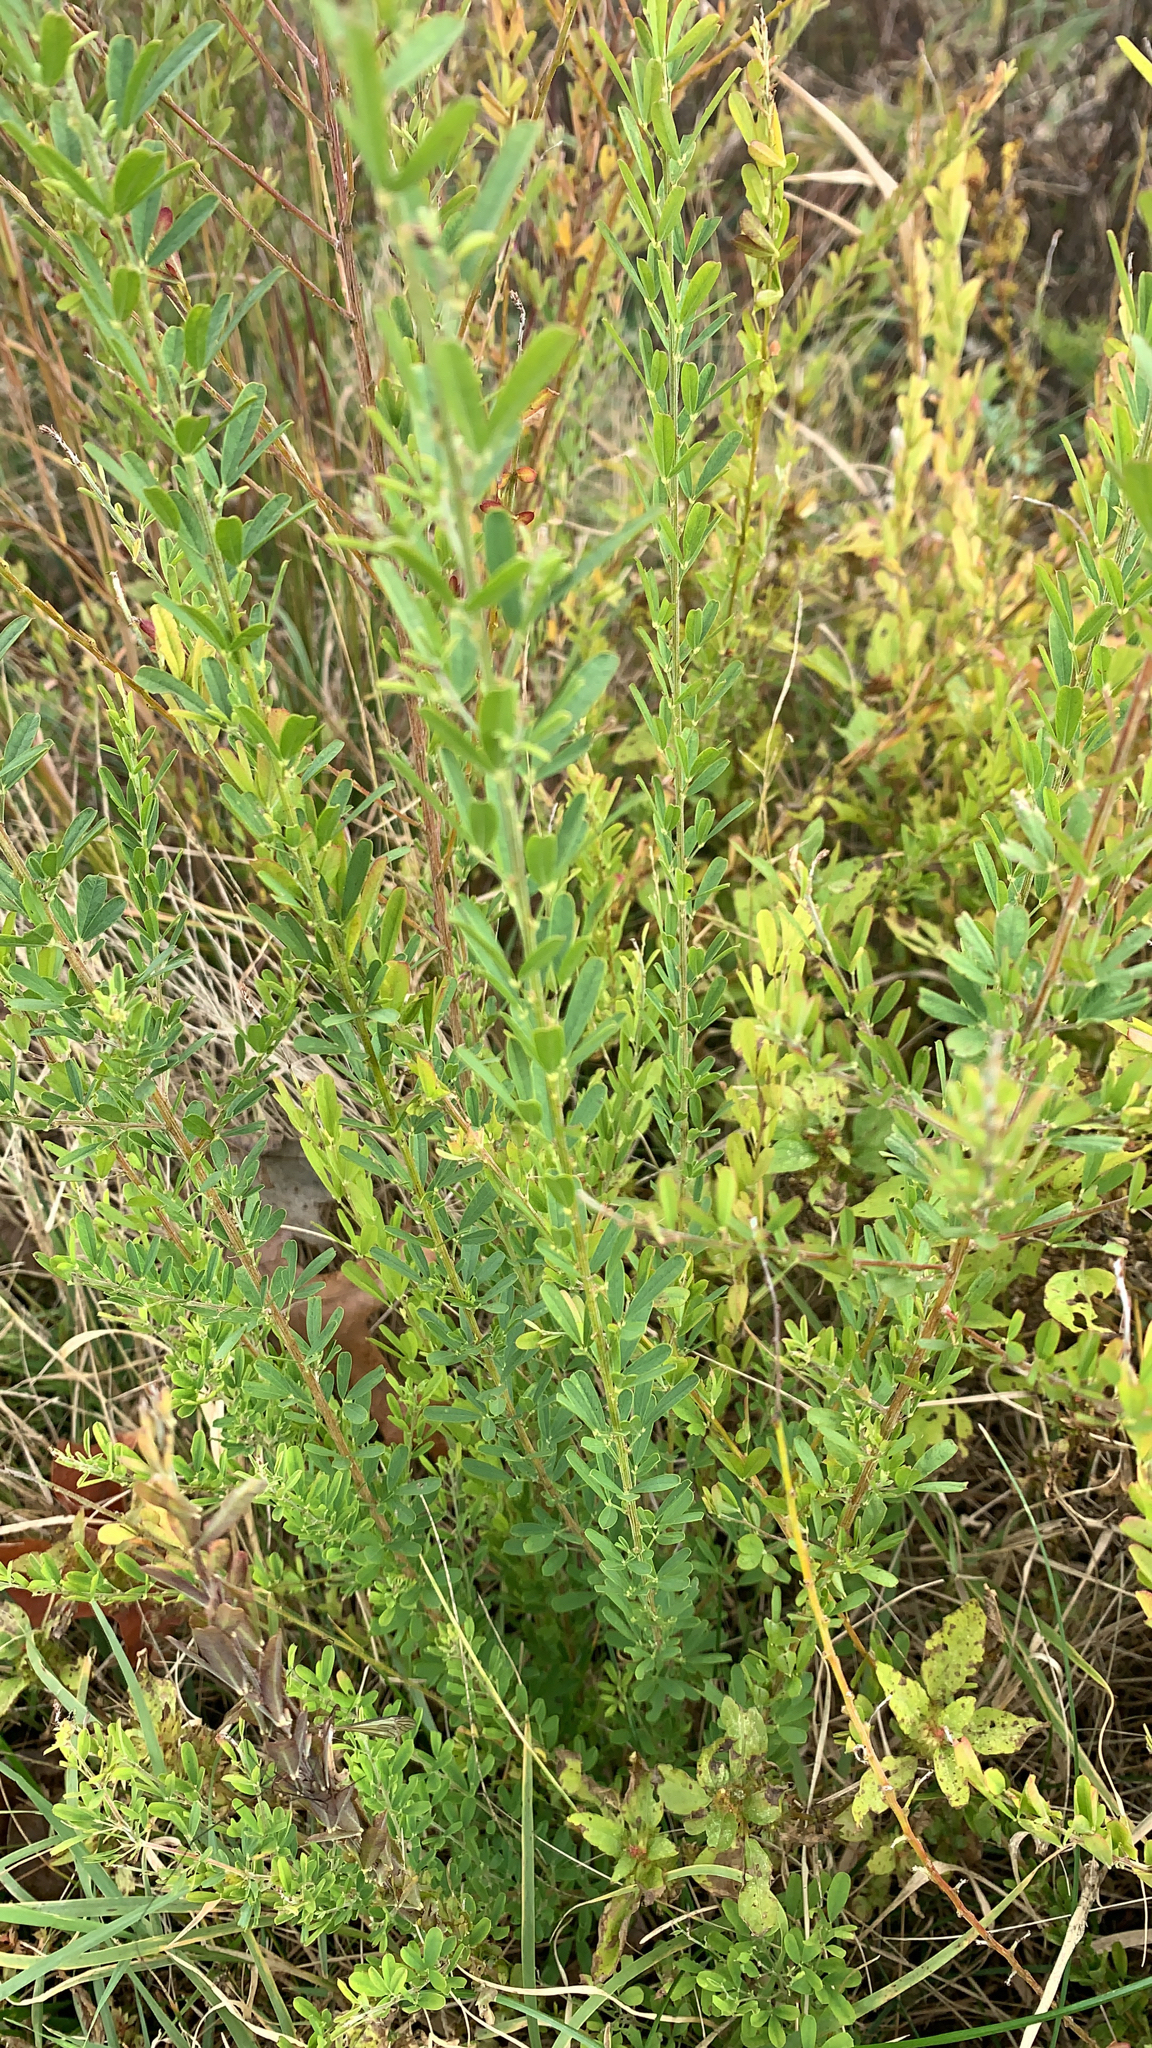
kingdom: Plantae
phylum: Tracheophyta
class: Magnoliopsida
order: Fabales
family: Fabaceae
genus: Lespedeza
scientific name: Lespedeza cuneata
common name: Chinese bush-clover
